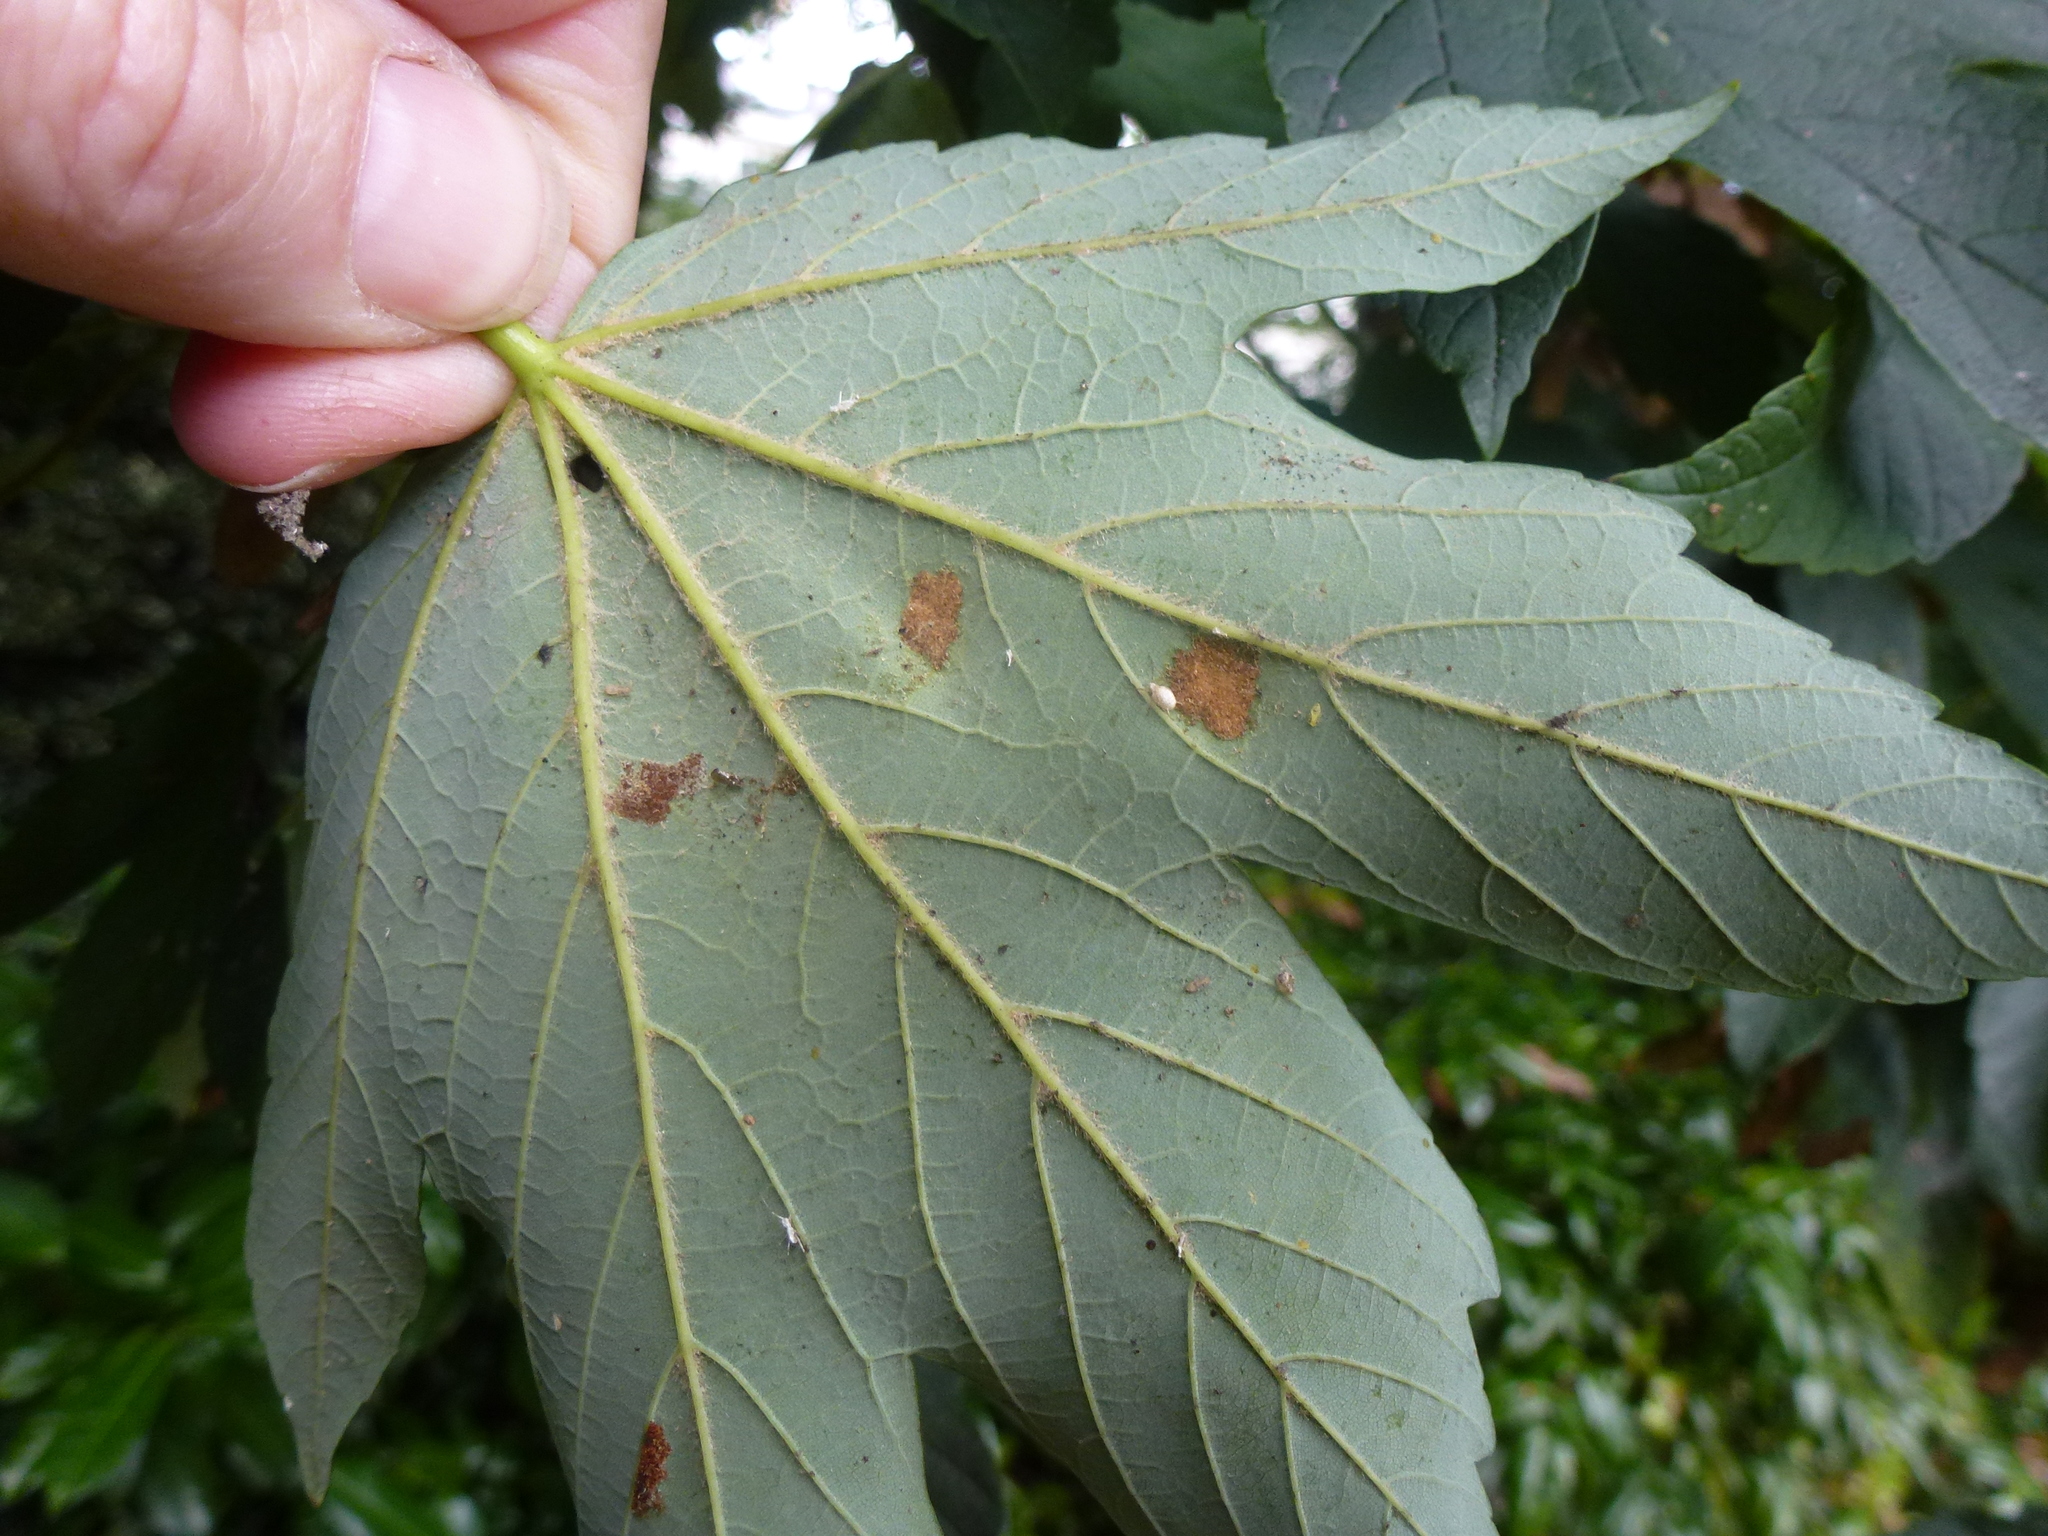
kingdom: Animalia
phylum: Arthropoda
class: Arachnida
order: Trombidiformes
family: Eriophyidae
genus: Aceria
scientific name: Aceria pseudoplatani
